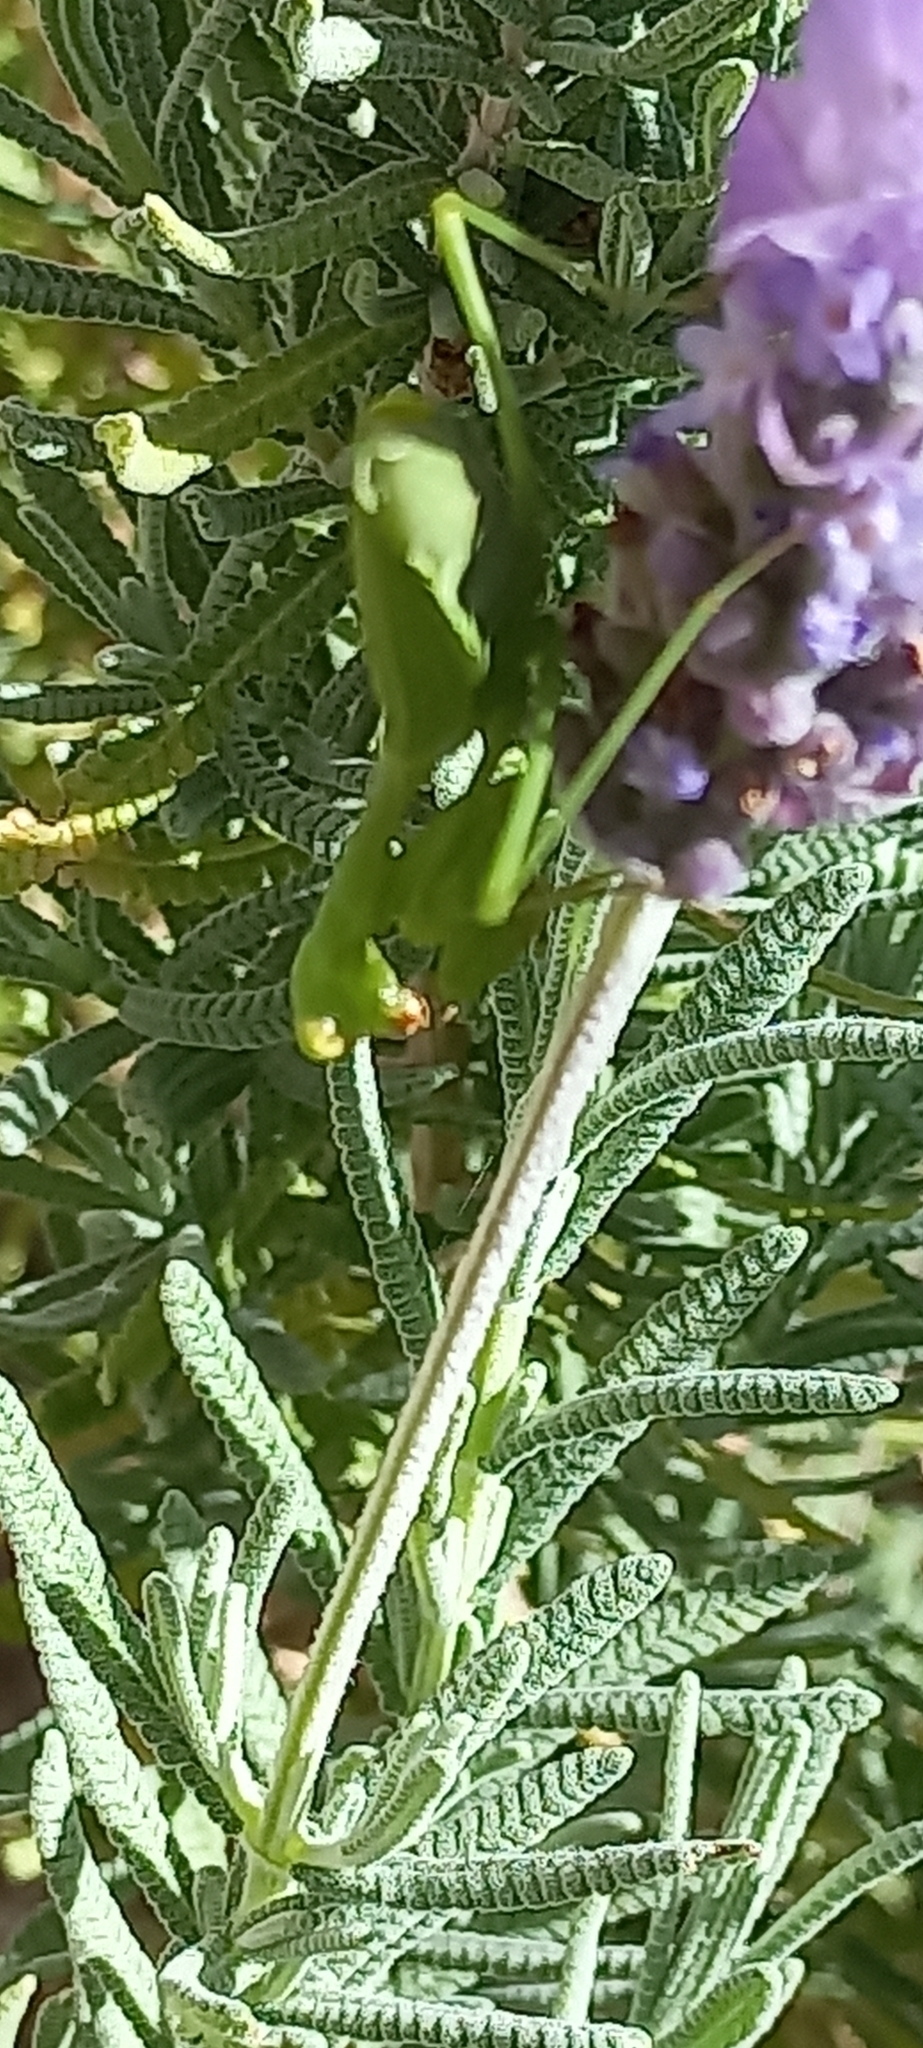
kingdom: Animalia
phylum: Arthropoda
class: Insecta
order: Mantodea
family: Miomantidae
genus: Miomantis
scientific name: Miomantis caffra
